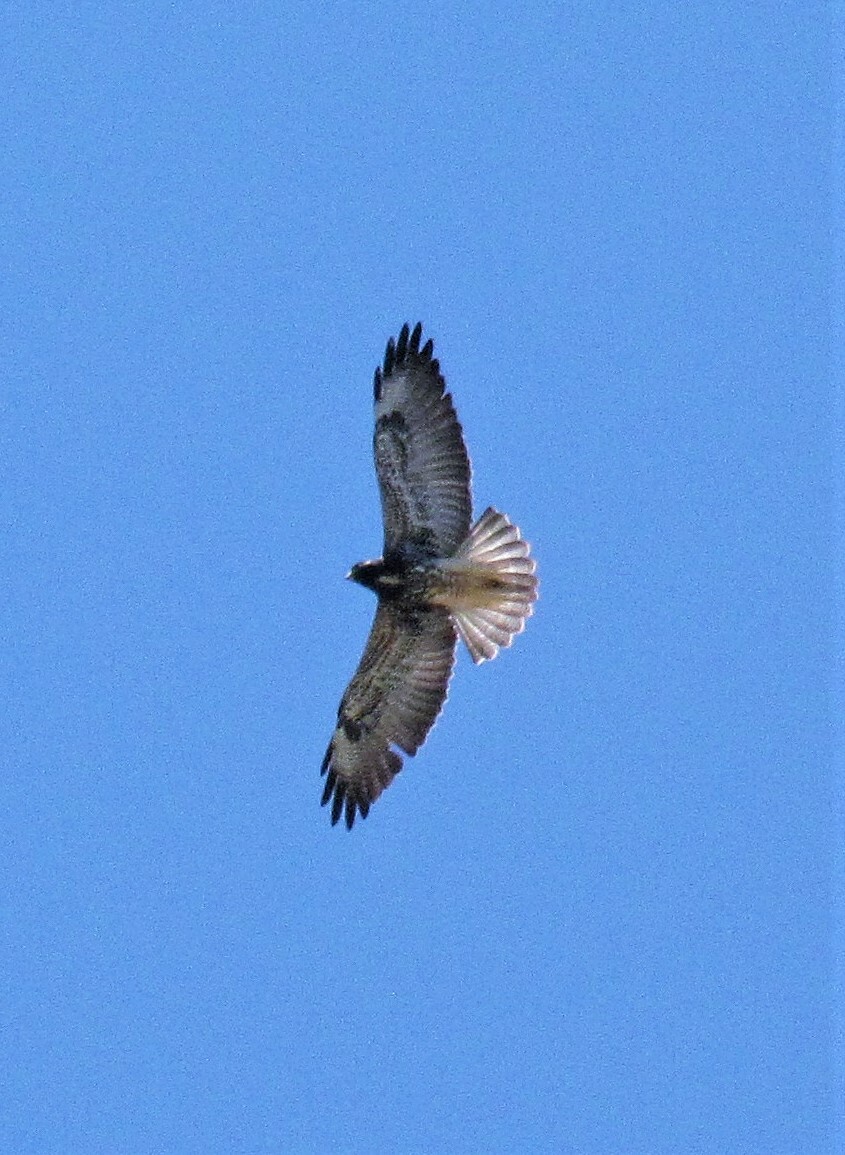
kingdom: Animalia
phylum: Chordata
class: Aves
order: Accipitriformes
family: Accipitridae
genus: Buteo
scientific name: Buteo albicaudatus
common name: White-tailed hawk
